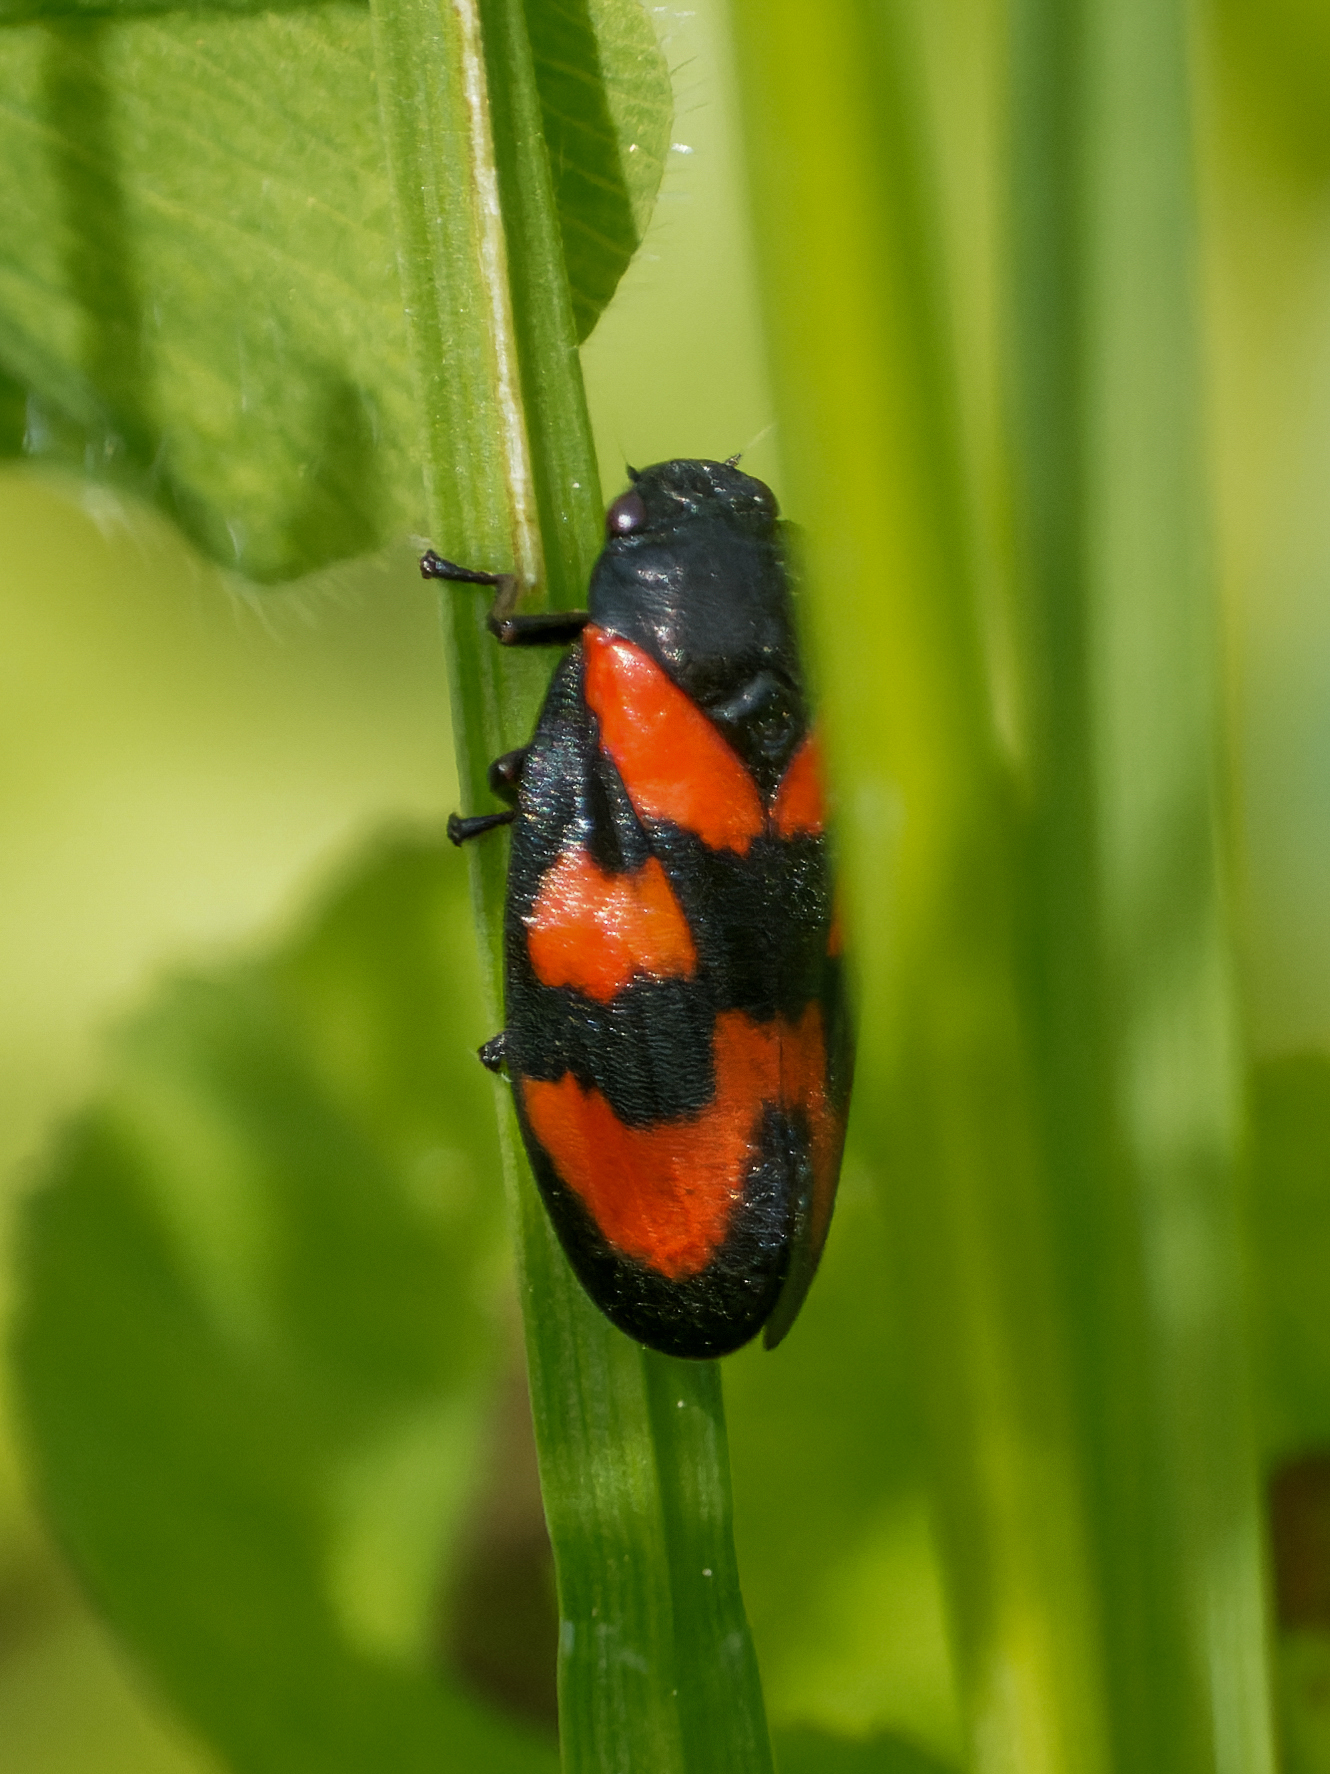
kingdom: Animalia
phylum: Arthropoda
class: Insecta
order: Hemiptera
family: Cercopidae
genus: Cercopis
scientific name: Cercopis vulnerata
